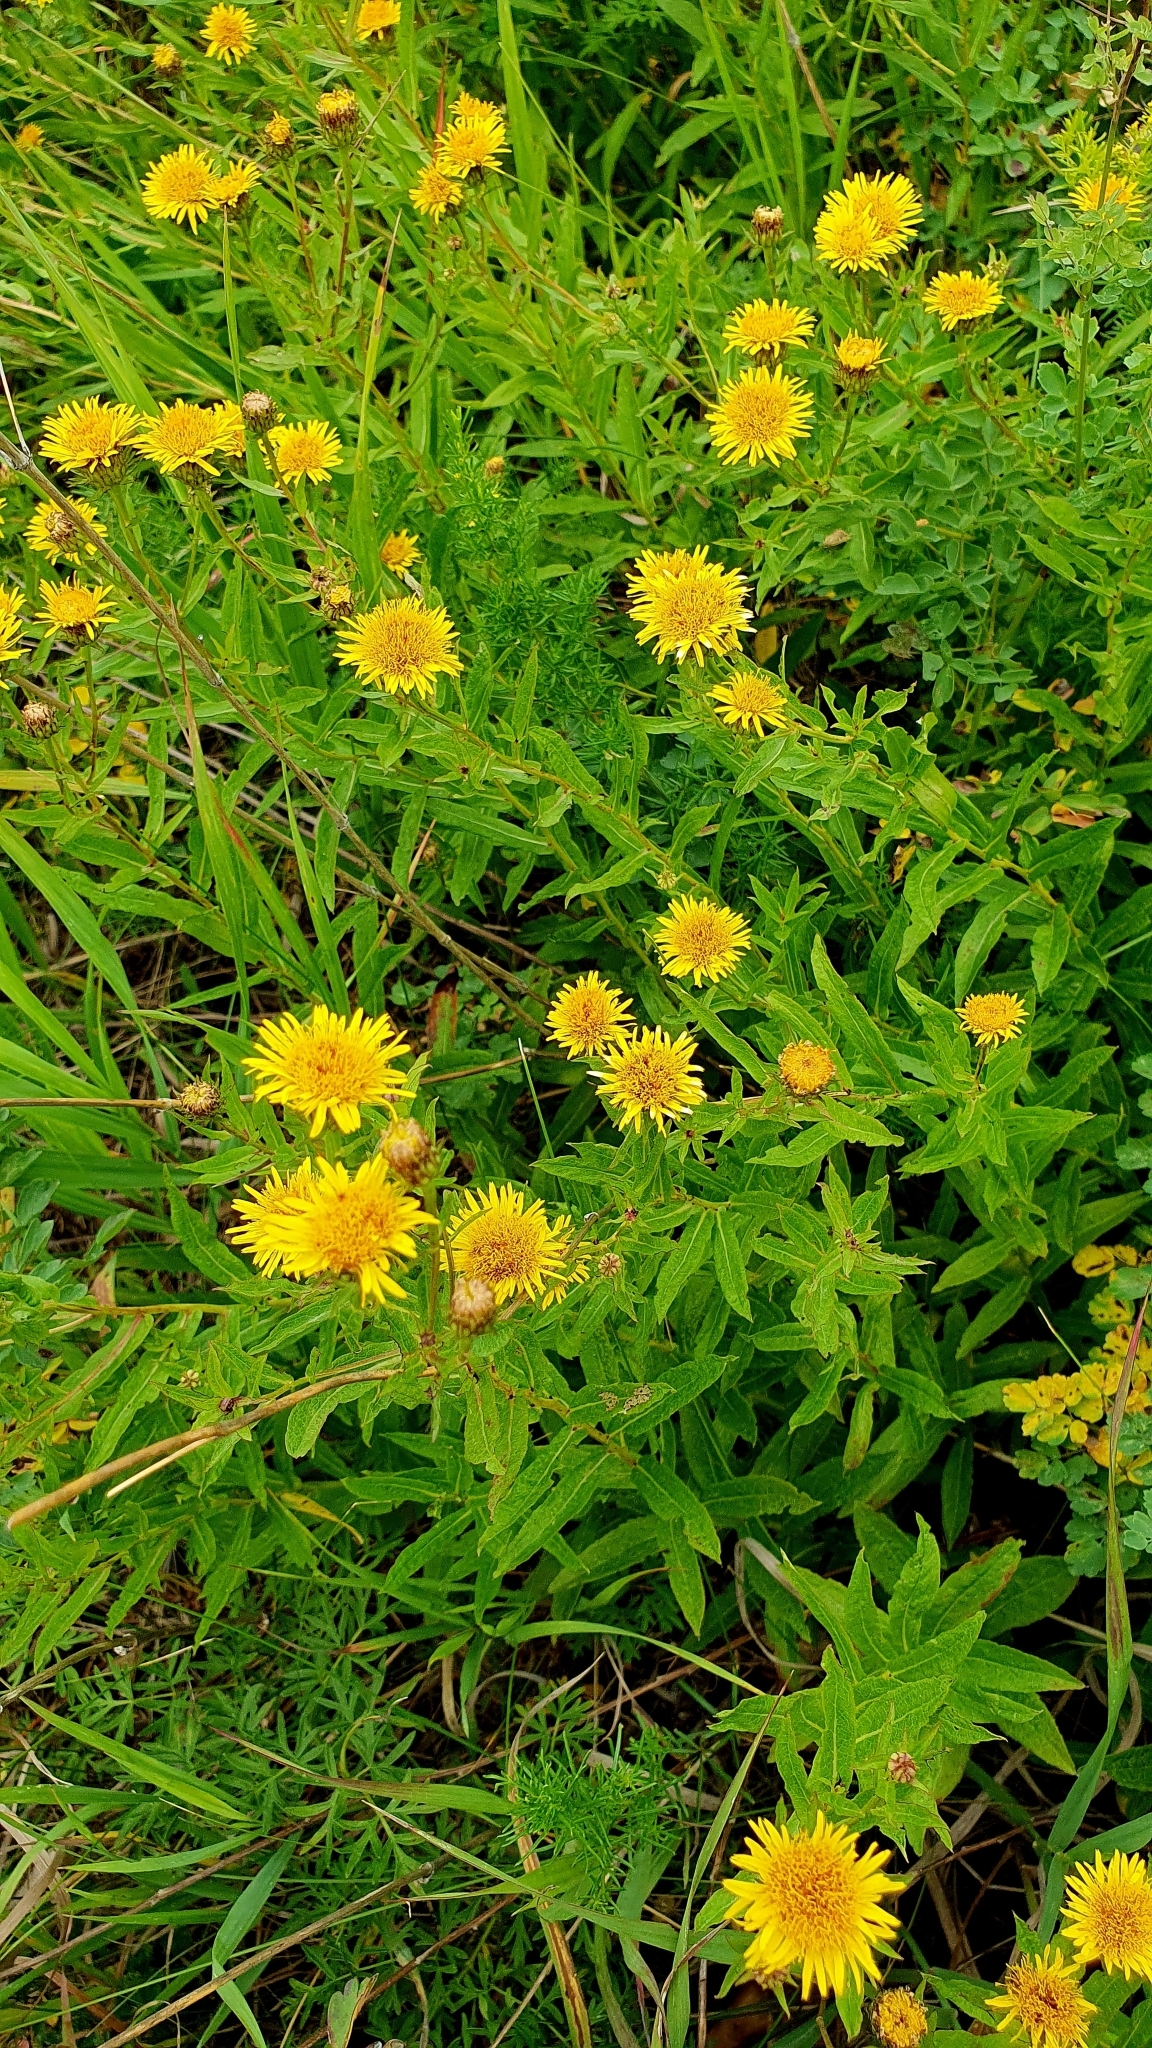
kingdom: Plantae
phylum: Tracheophyta
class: Magnoliopsida
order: Asterales
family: Asteraceae
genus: Pentanema
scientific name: Pentanema salicinum
